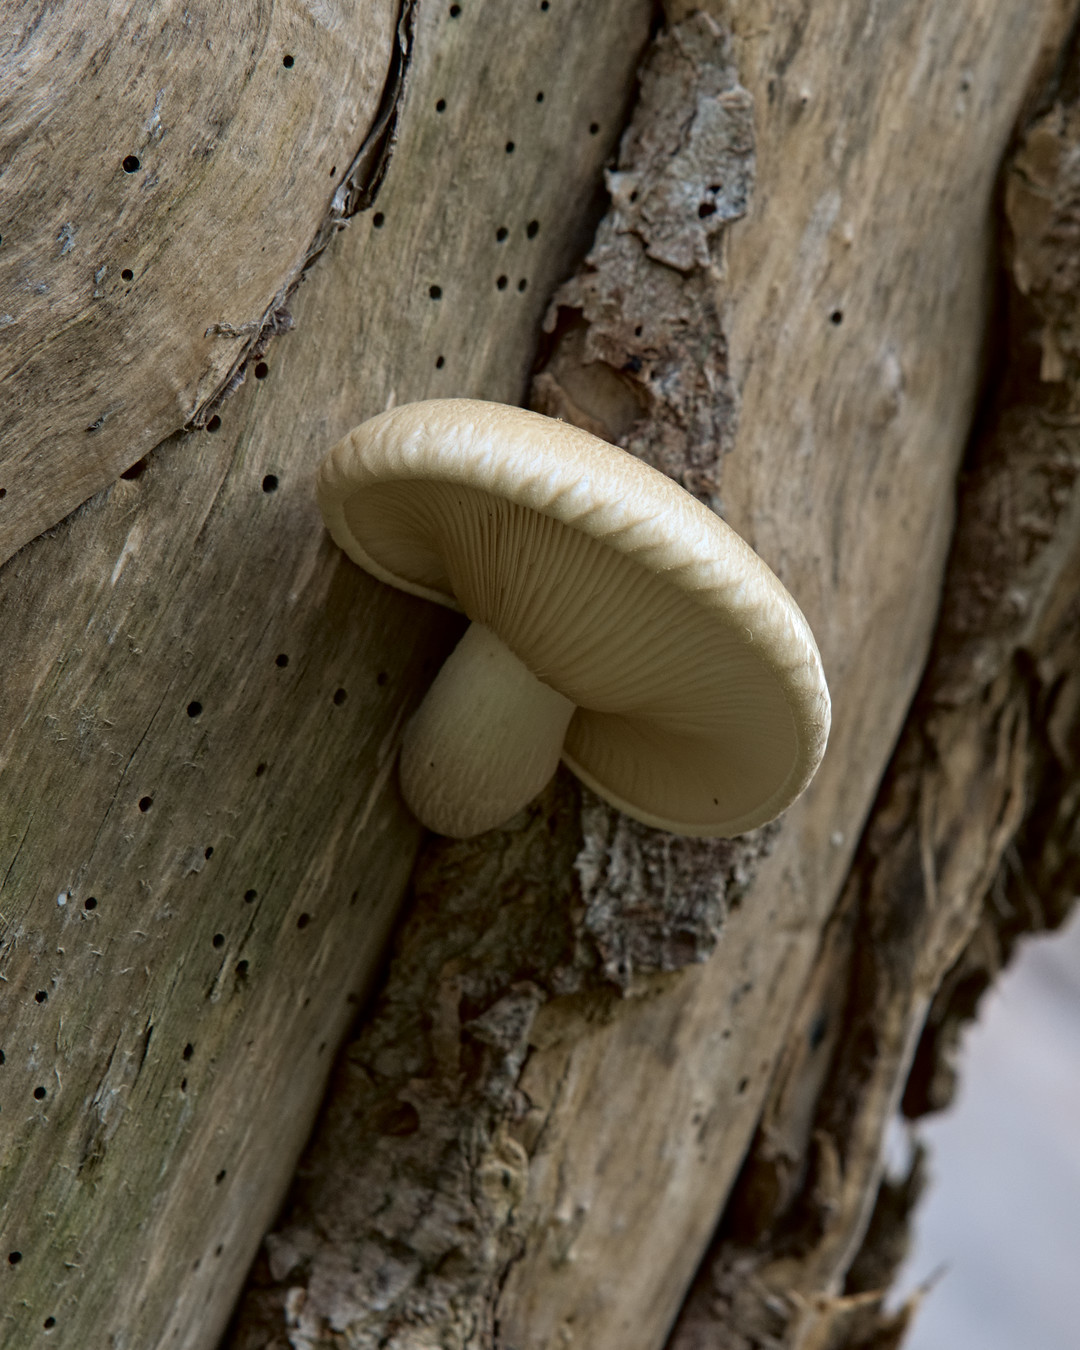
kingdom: Fungi
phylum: Basidiomycota
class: Agaricomycetes
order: Agaricales
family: Lyophyllaceae
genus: Hypsizygus
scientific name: Hypsizygus ulmarius
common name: Elm leech
